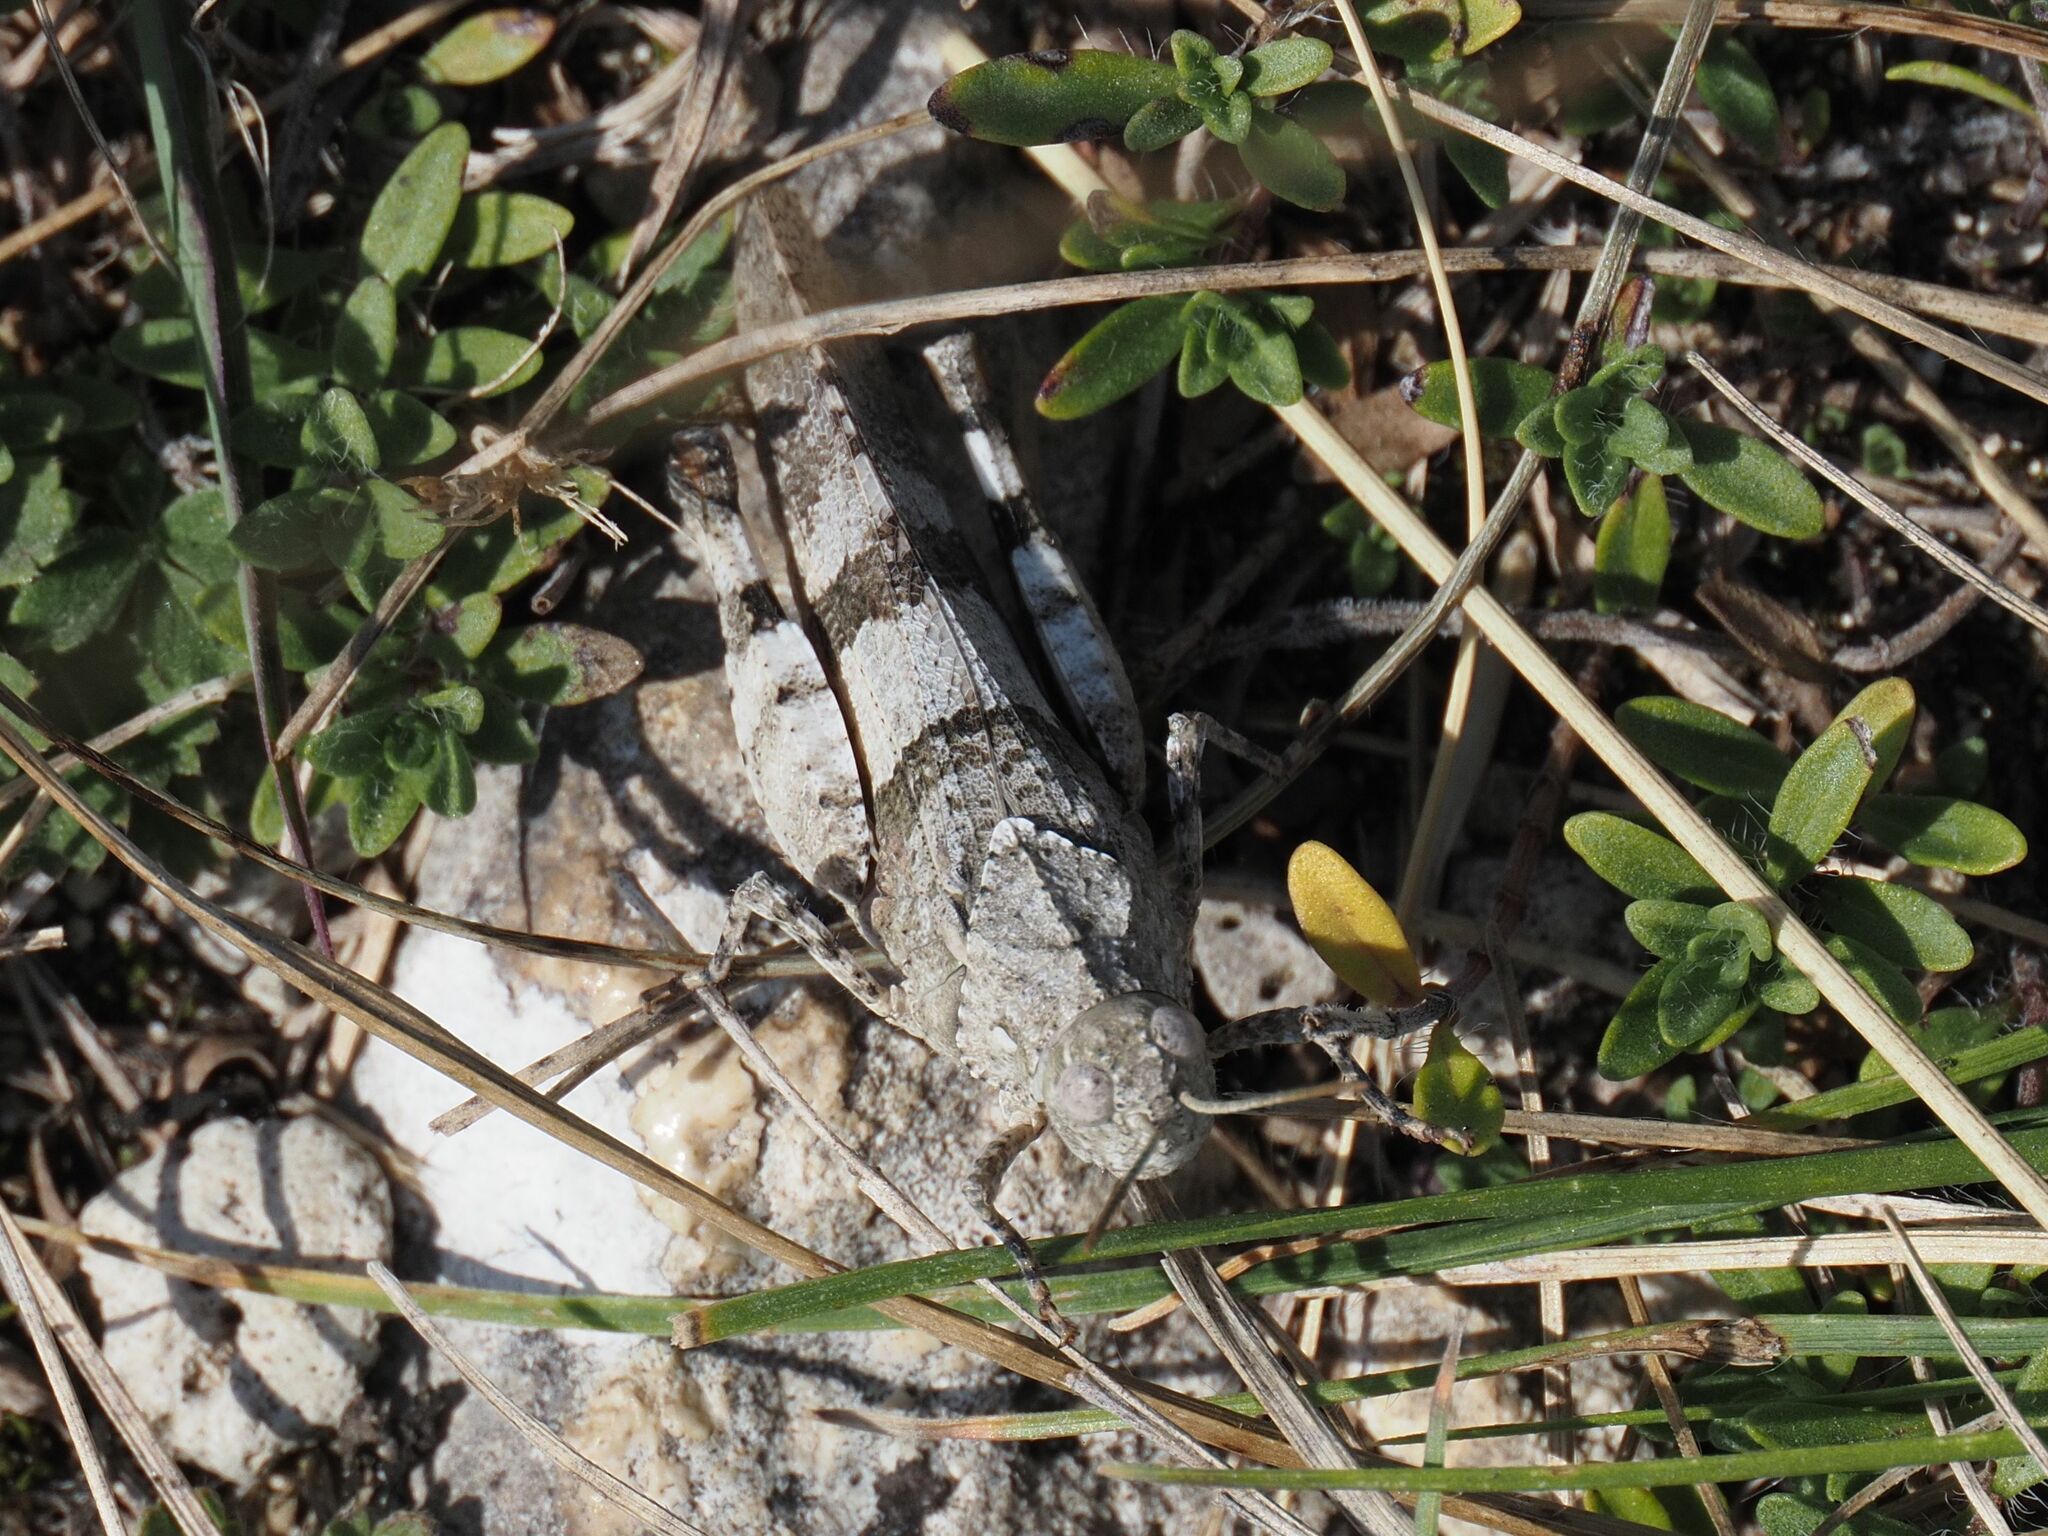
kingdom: Animalia
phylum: Arthropoda
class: Insecta
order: Orthoptera
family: Acrididae
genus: Oedipoda
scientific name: Oedipoda caerulescens
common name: Blue-winged grasshopper
